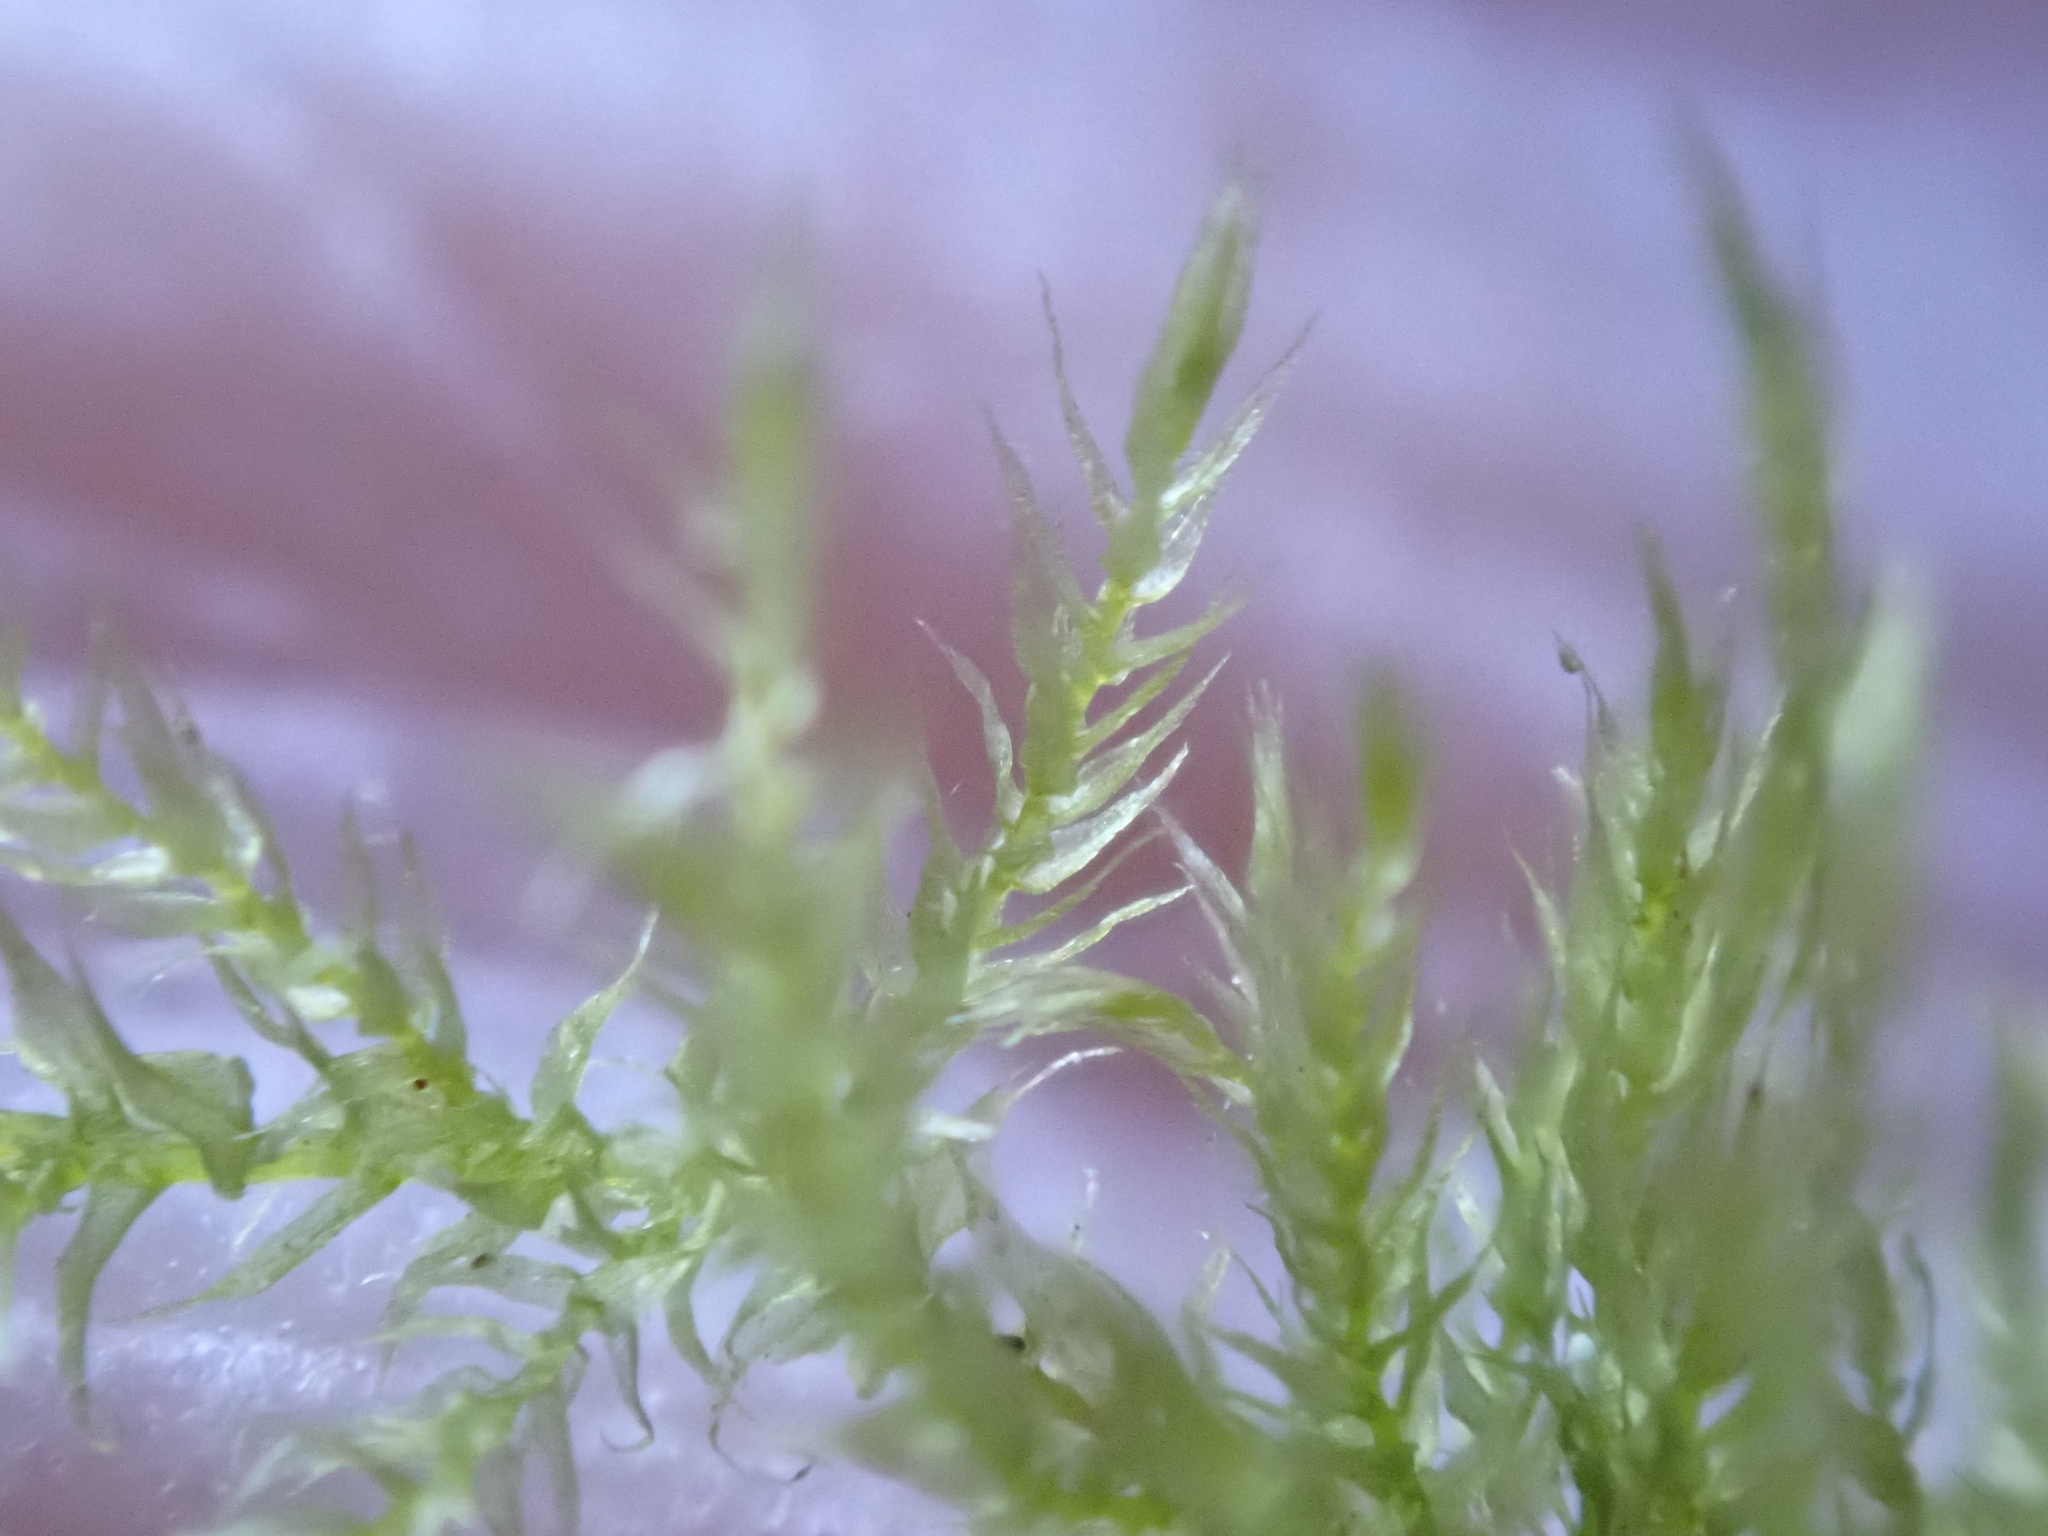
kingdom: Plantae
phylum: Bryophyta
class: Bryopsida
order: Hypnales
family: Brachytheciaceae
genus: Kindbergia
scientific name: Kindbergia praelonga
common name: Slender beaked moss
